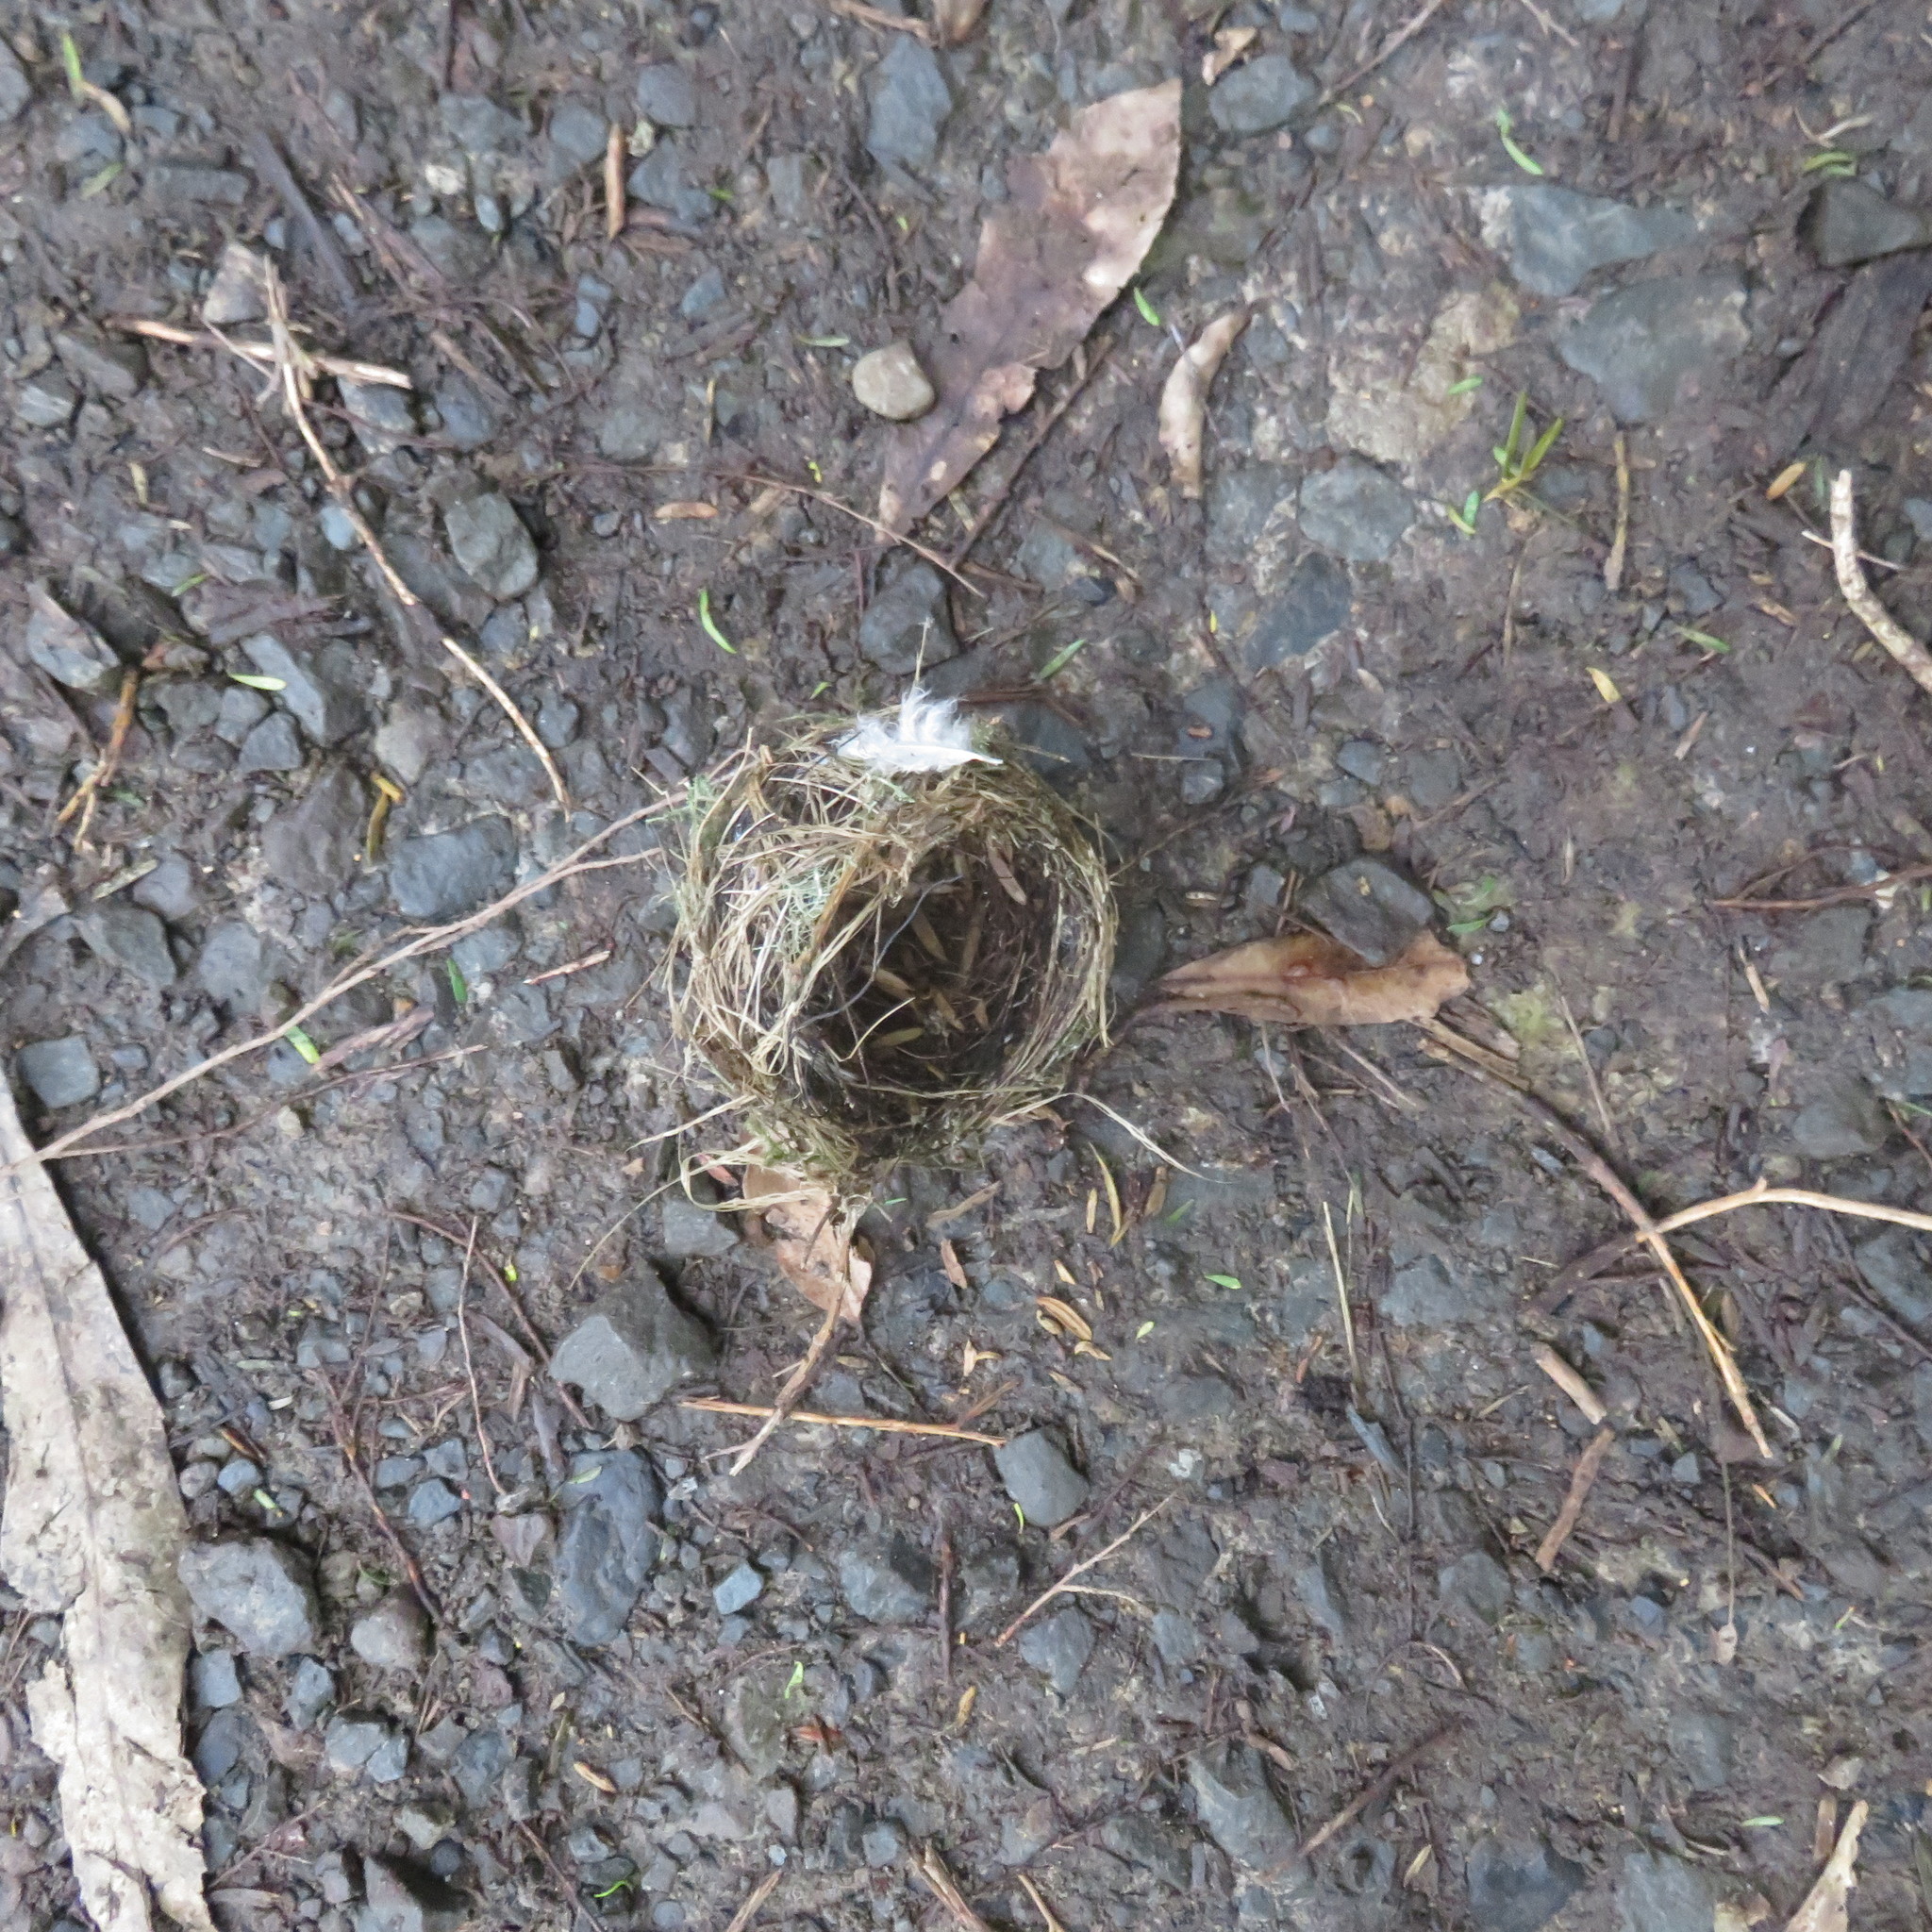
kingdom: Animalia
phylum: Chordata
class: Aves
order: Passeriformes
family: Zosteropidae
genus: Zosterops
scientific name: Zosterops lateralis
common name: Silvereye
